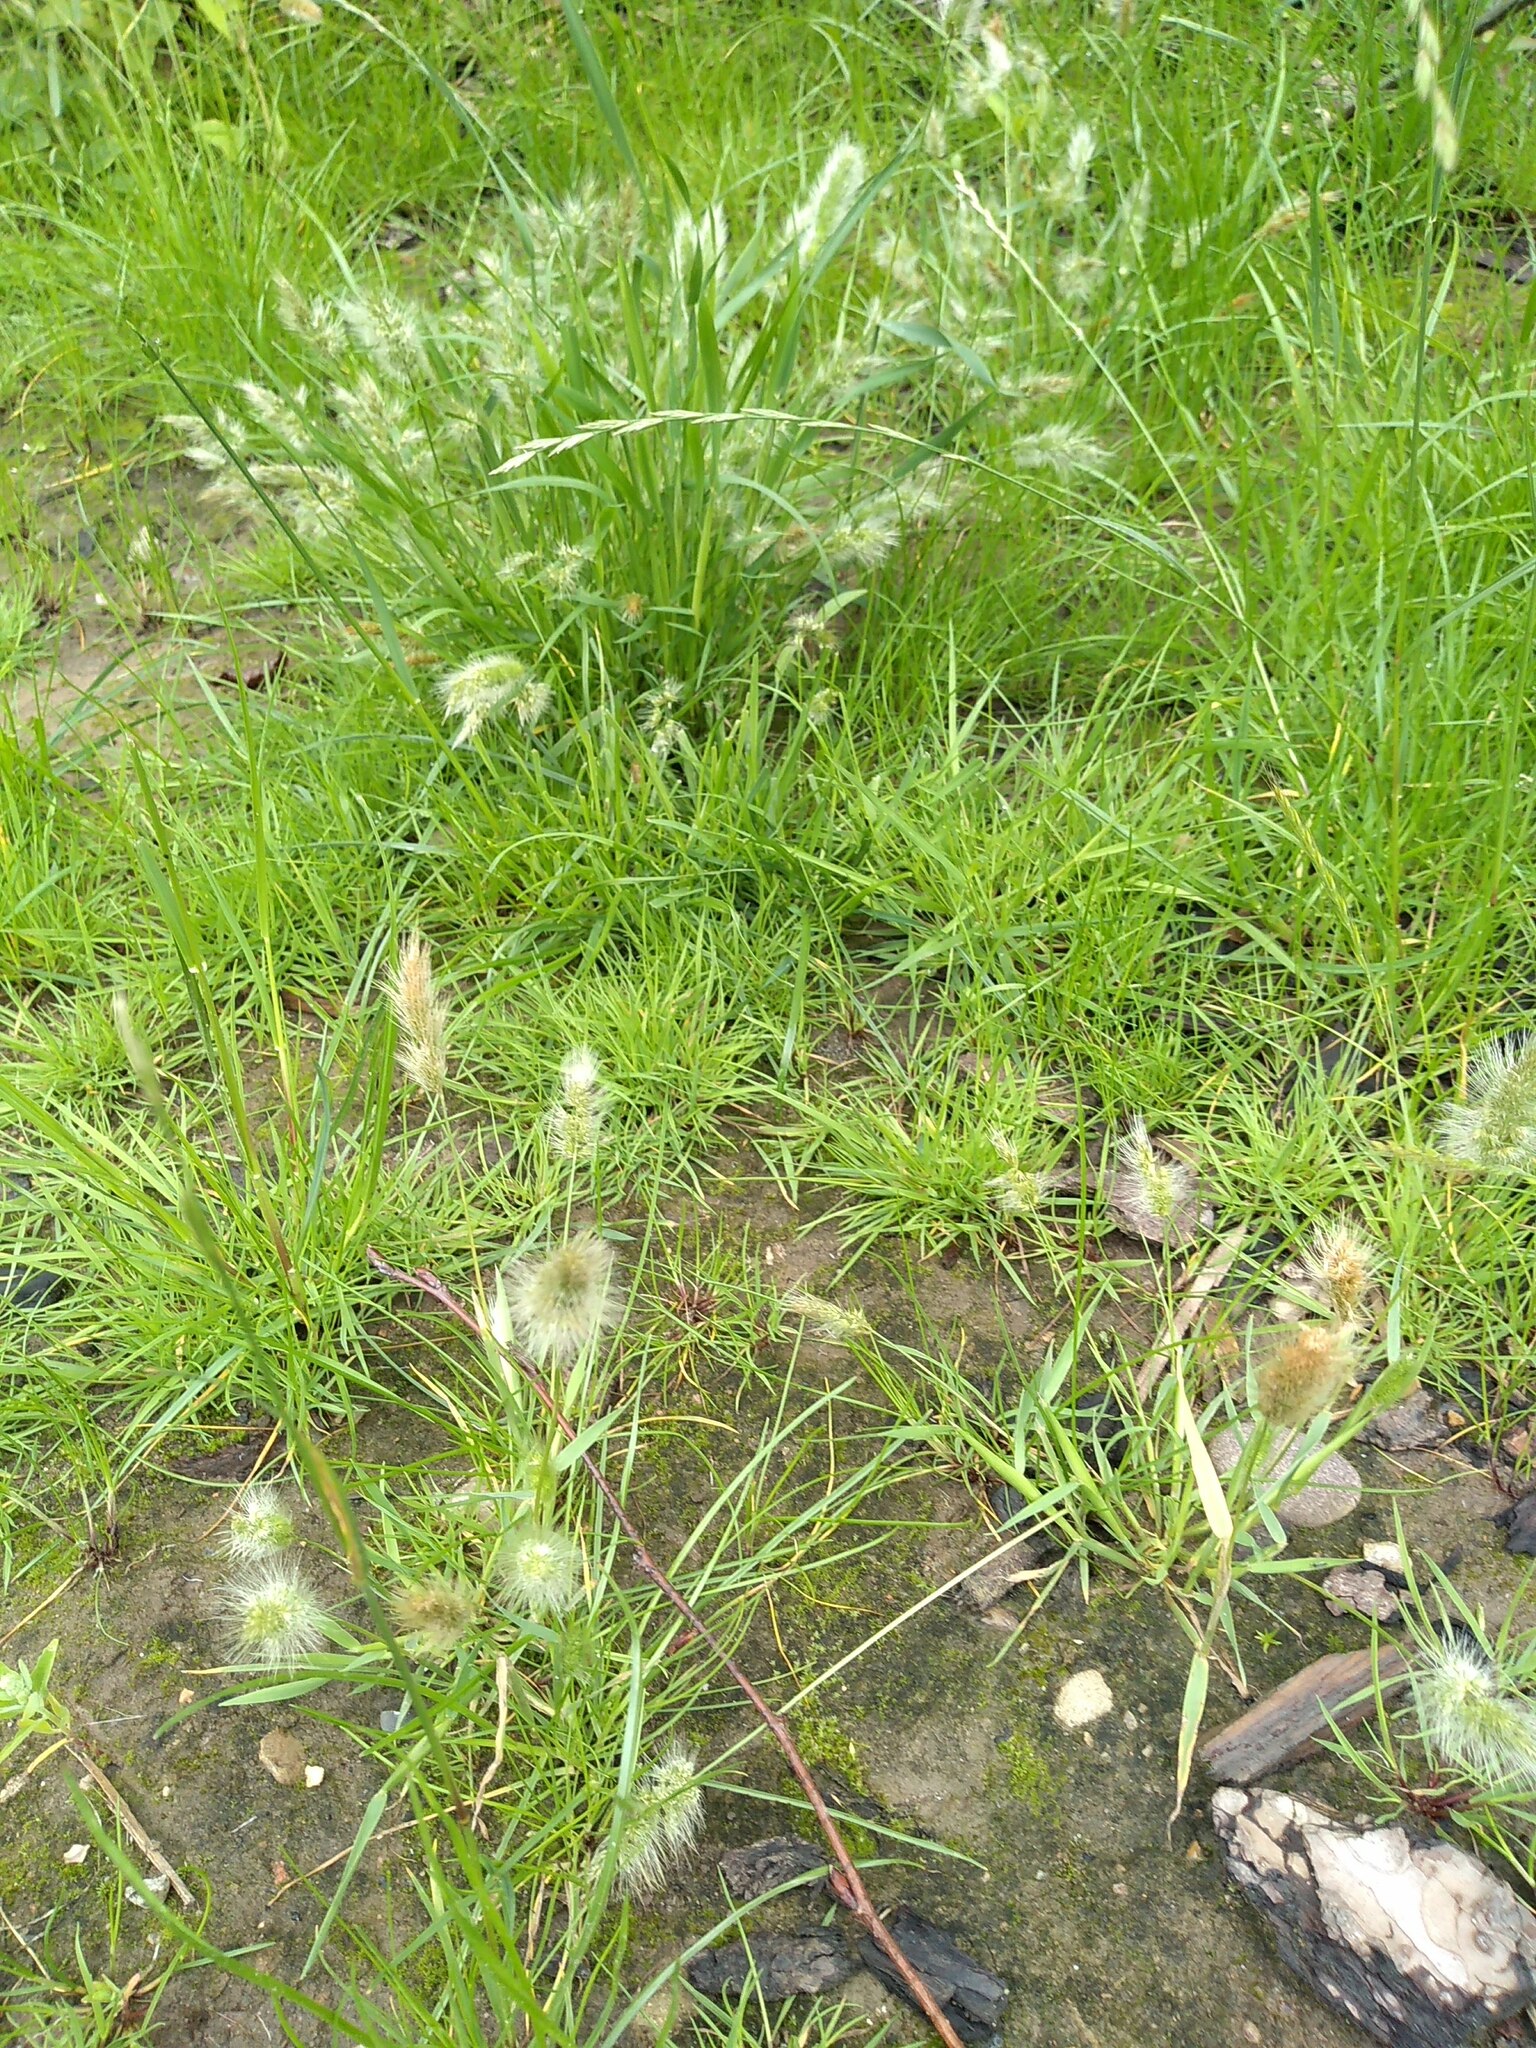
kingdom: Plantae
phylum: Tracheophyta
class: Liliopsida
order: Poales
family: Poaceae
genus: Polypogon
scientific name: Polypogon monspeliensis
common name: Annual rabbitsfoot grass
